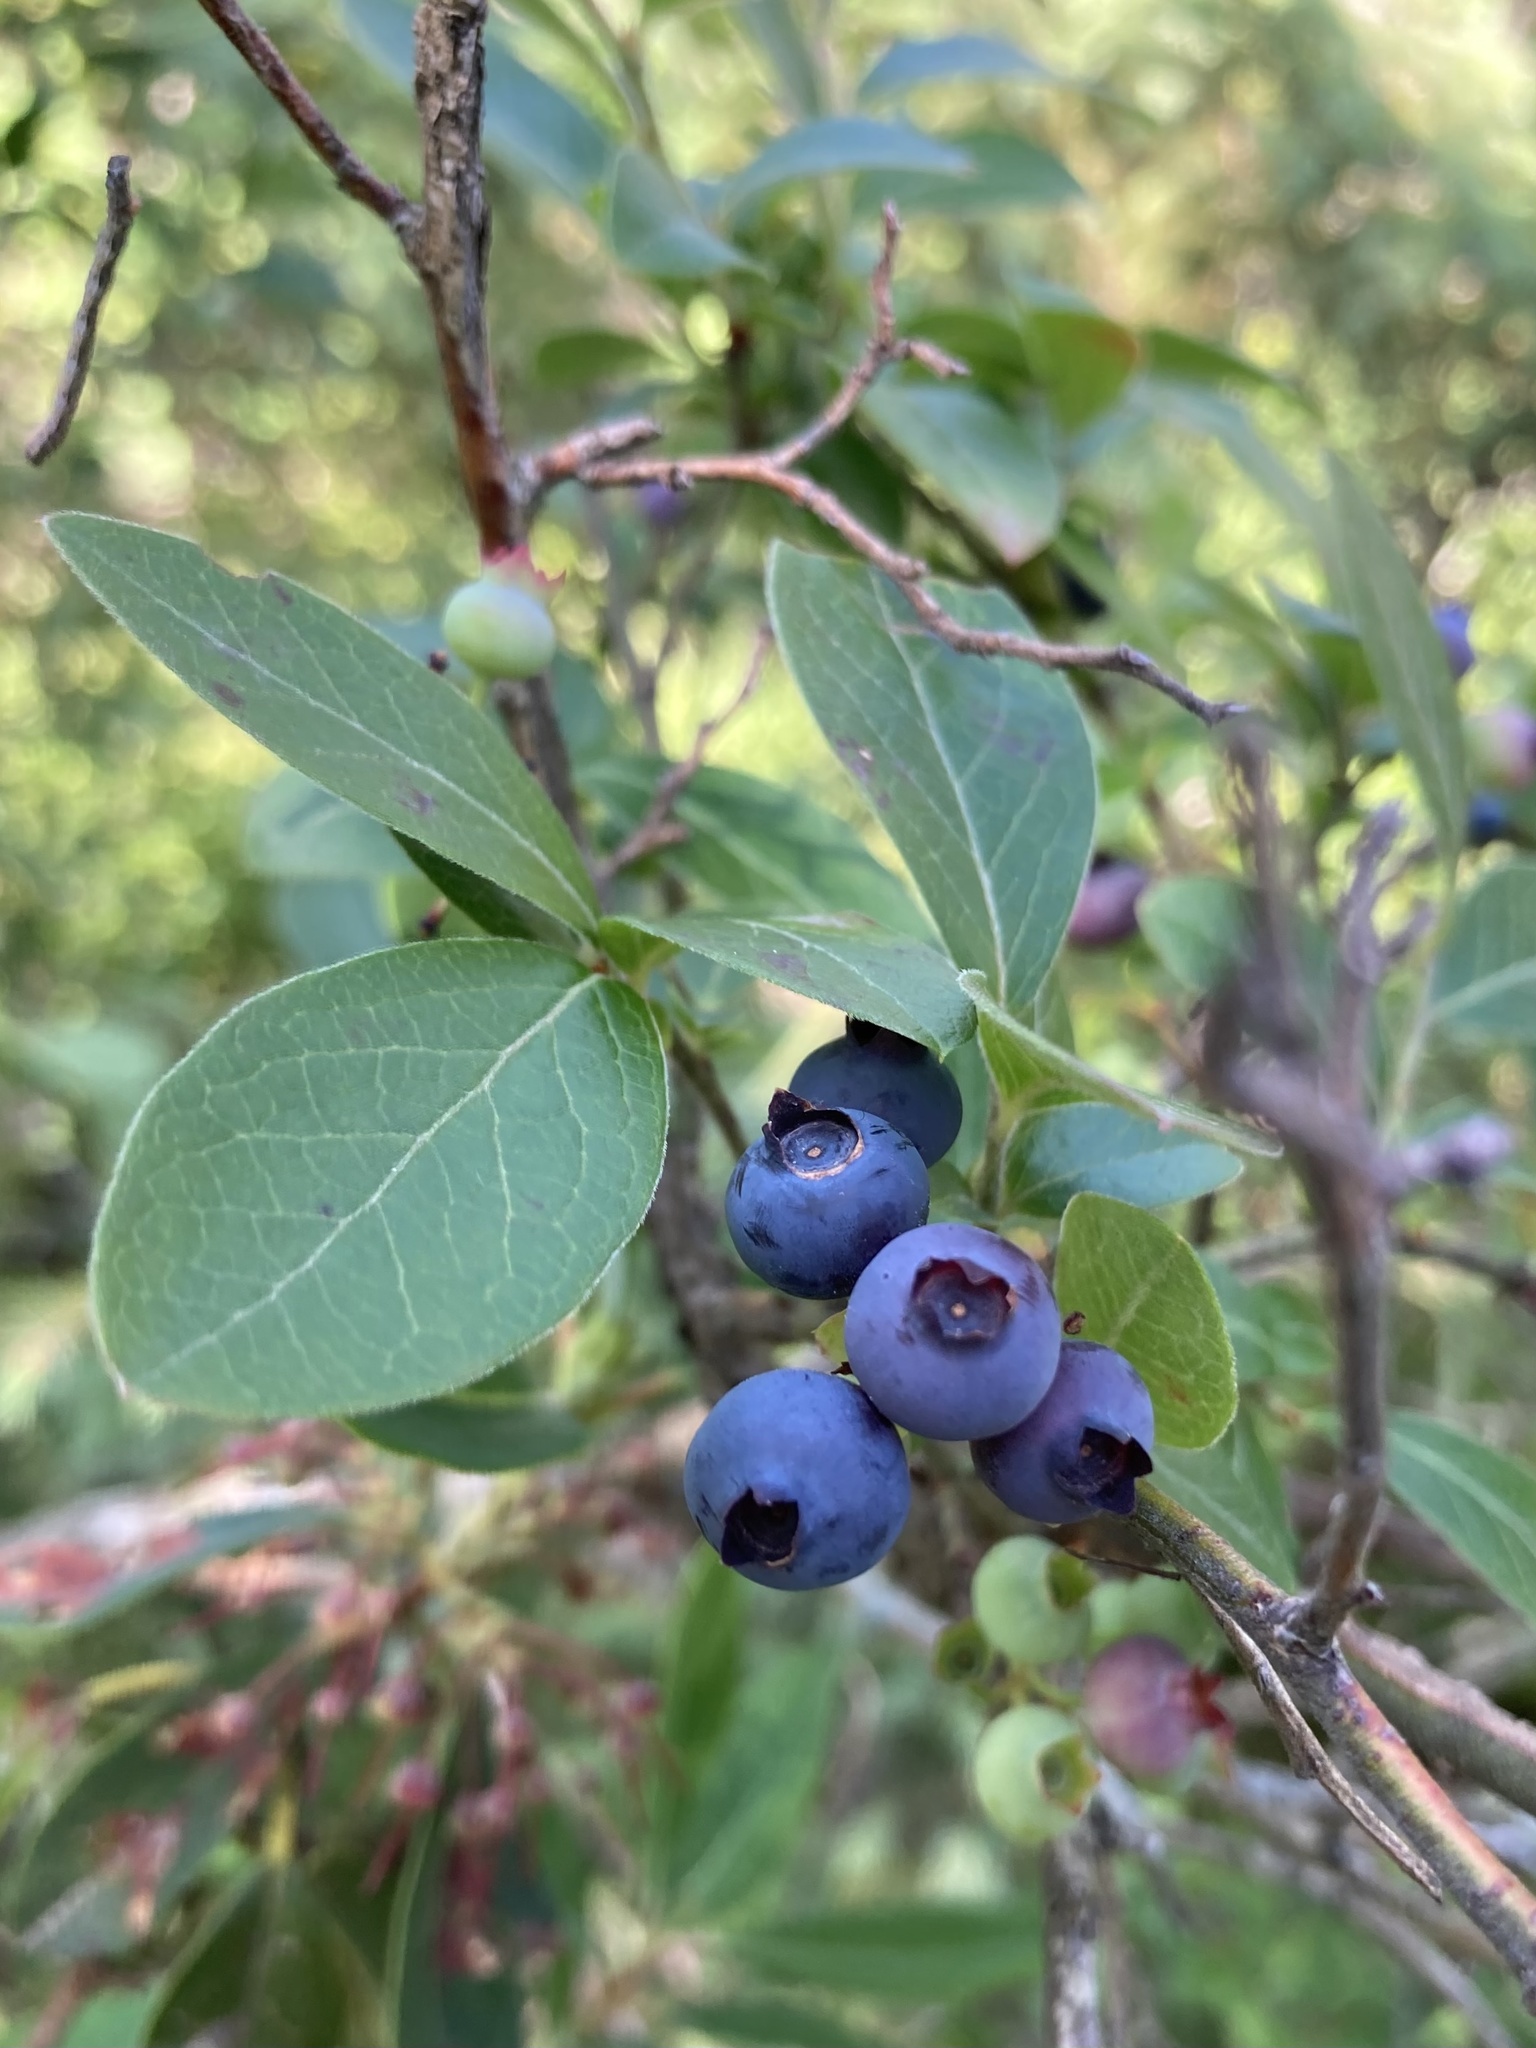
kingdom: Plantae
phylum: Tracheophyta
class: Magnoliopsida
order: Ericales
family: Ericaceae
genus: Vaccinium
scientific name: Vaccinium corymbosum
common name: Blueberry
